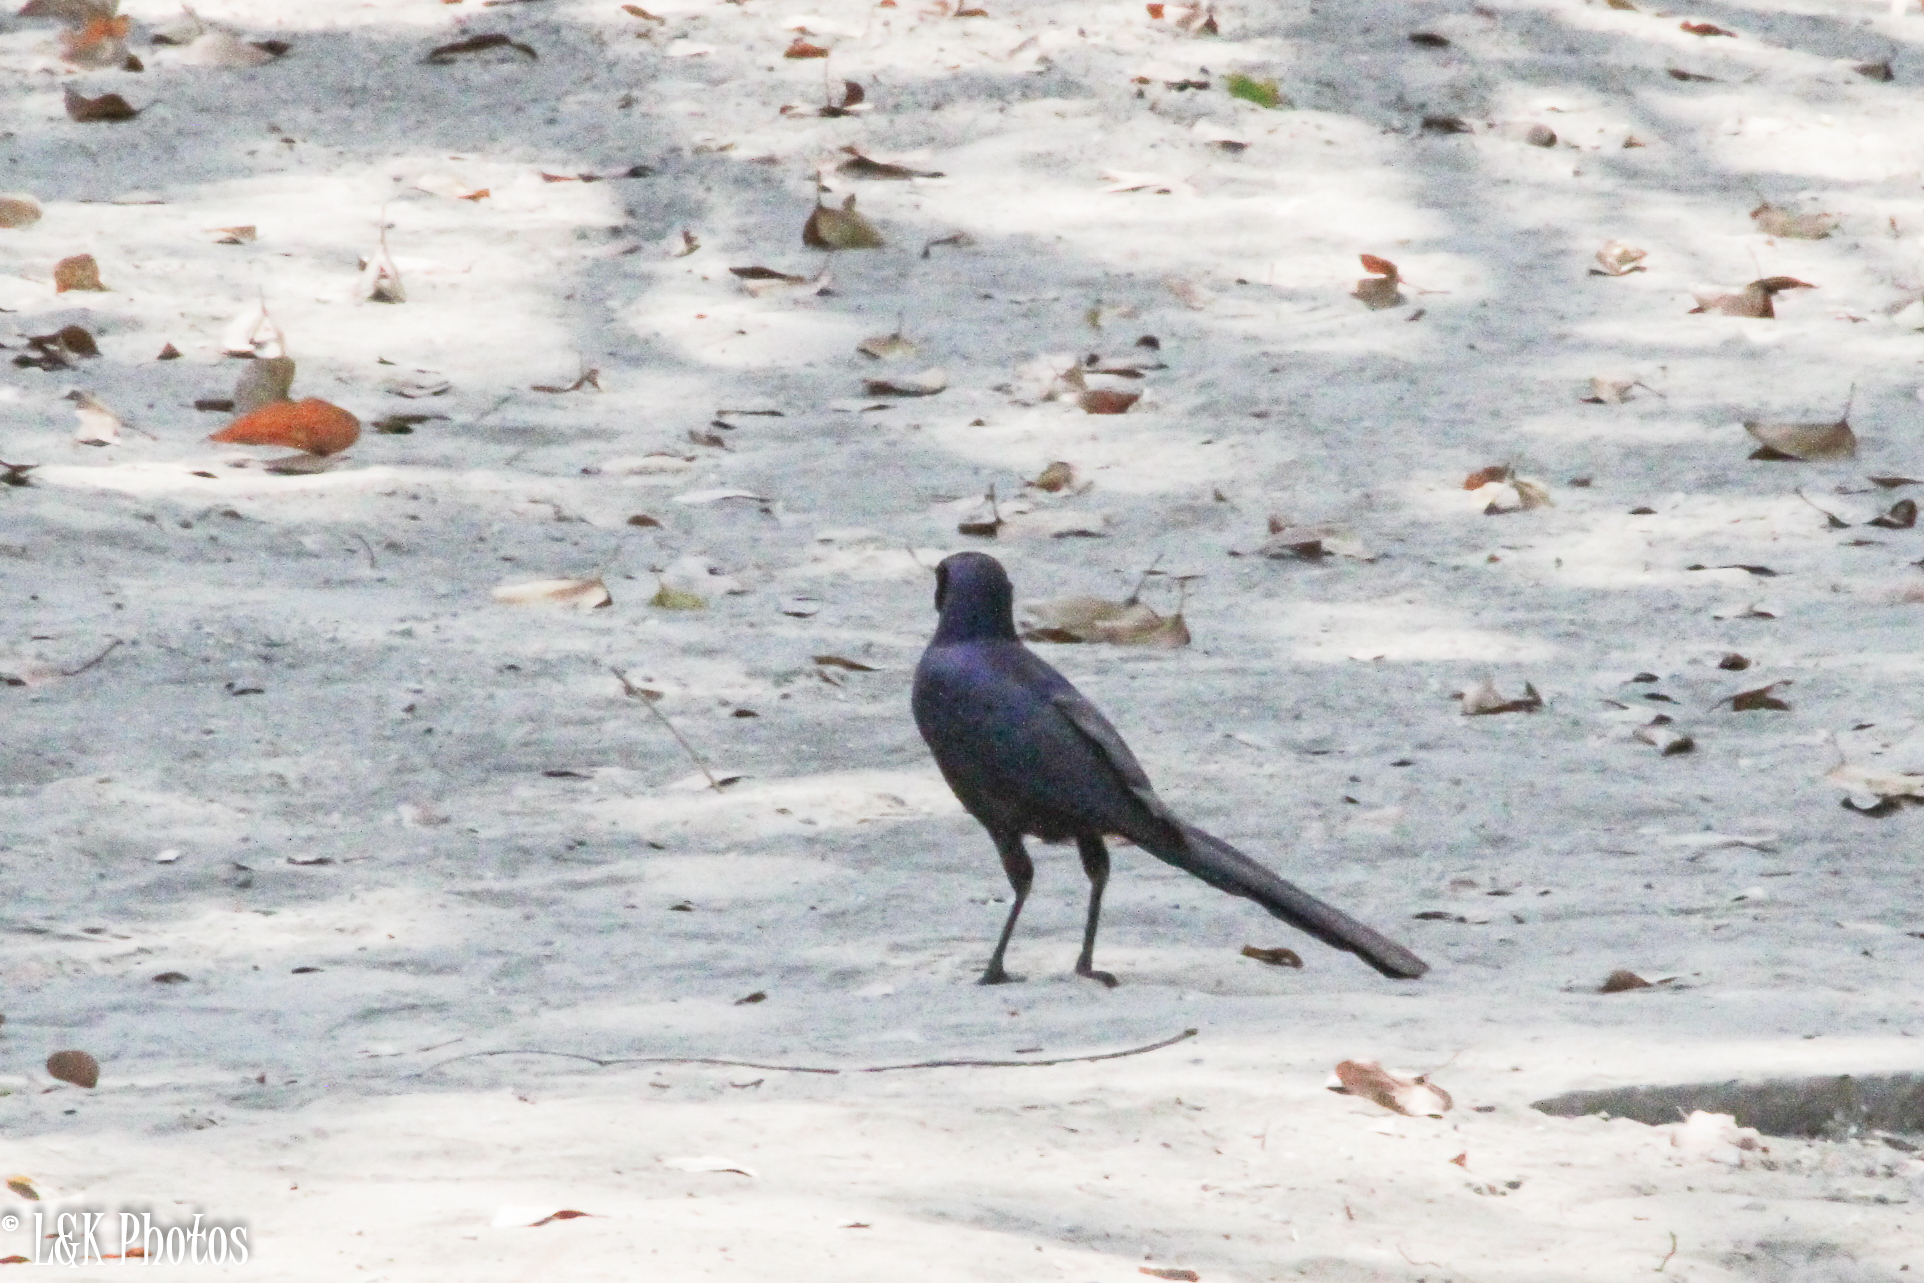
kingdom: Animalia
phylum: Chordata
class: Aves
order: Passeriformes
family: Sturnidae
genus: Lamprotornis
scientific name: Lamprotornis mevesii
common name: Meves's starling
